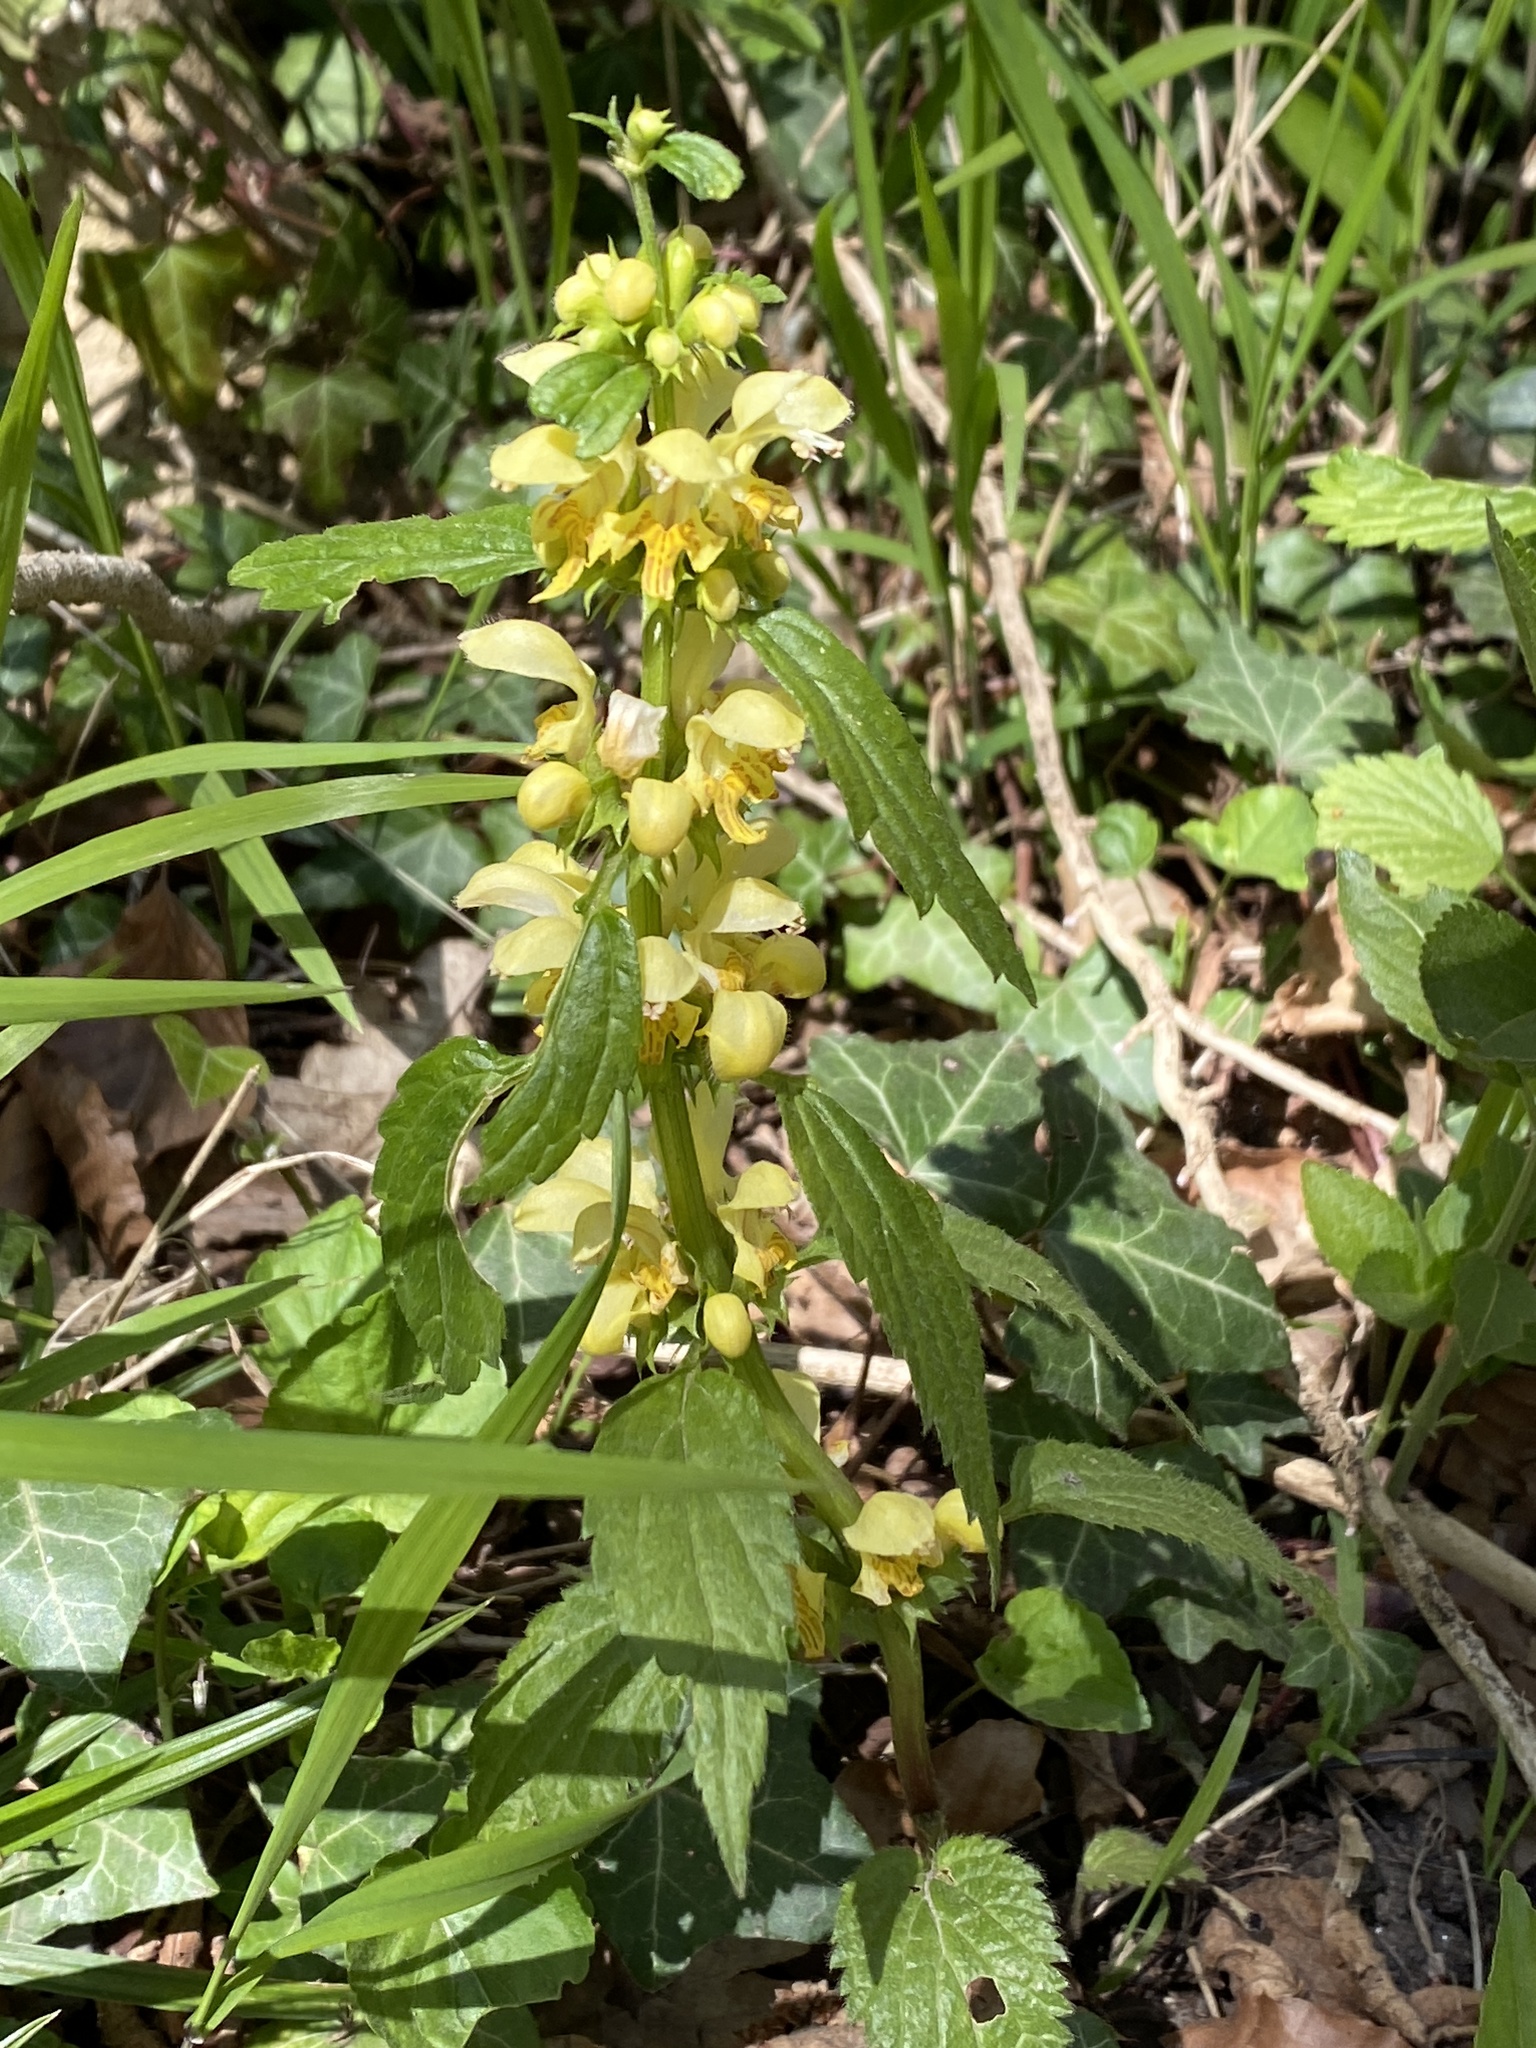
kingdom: Plantae
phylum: Tracheophyta
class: Magnoliopsida
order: Lamiales
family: Lamiaceae
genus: Lamium
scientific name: Lamium galeobdolon
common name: Yellow archangel
